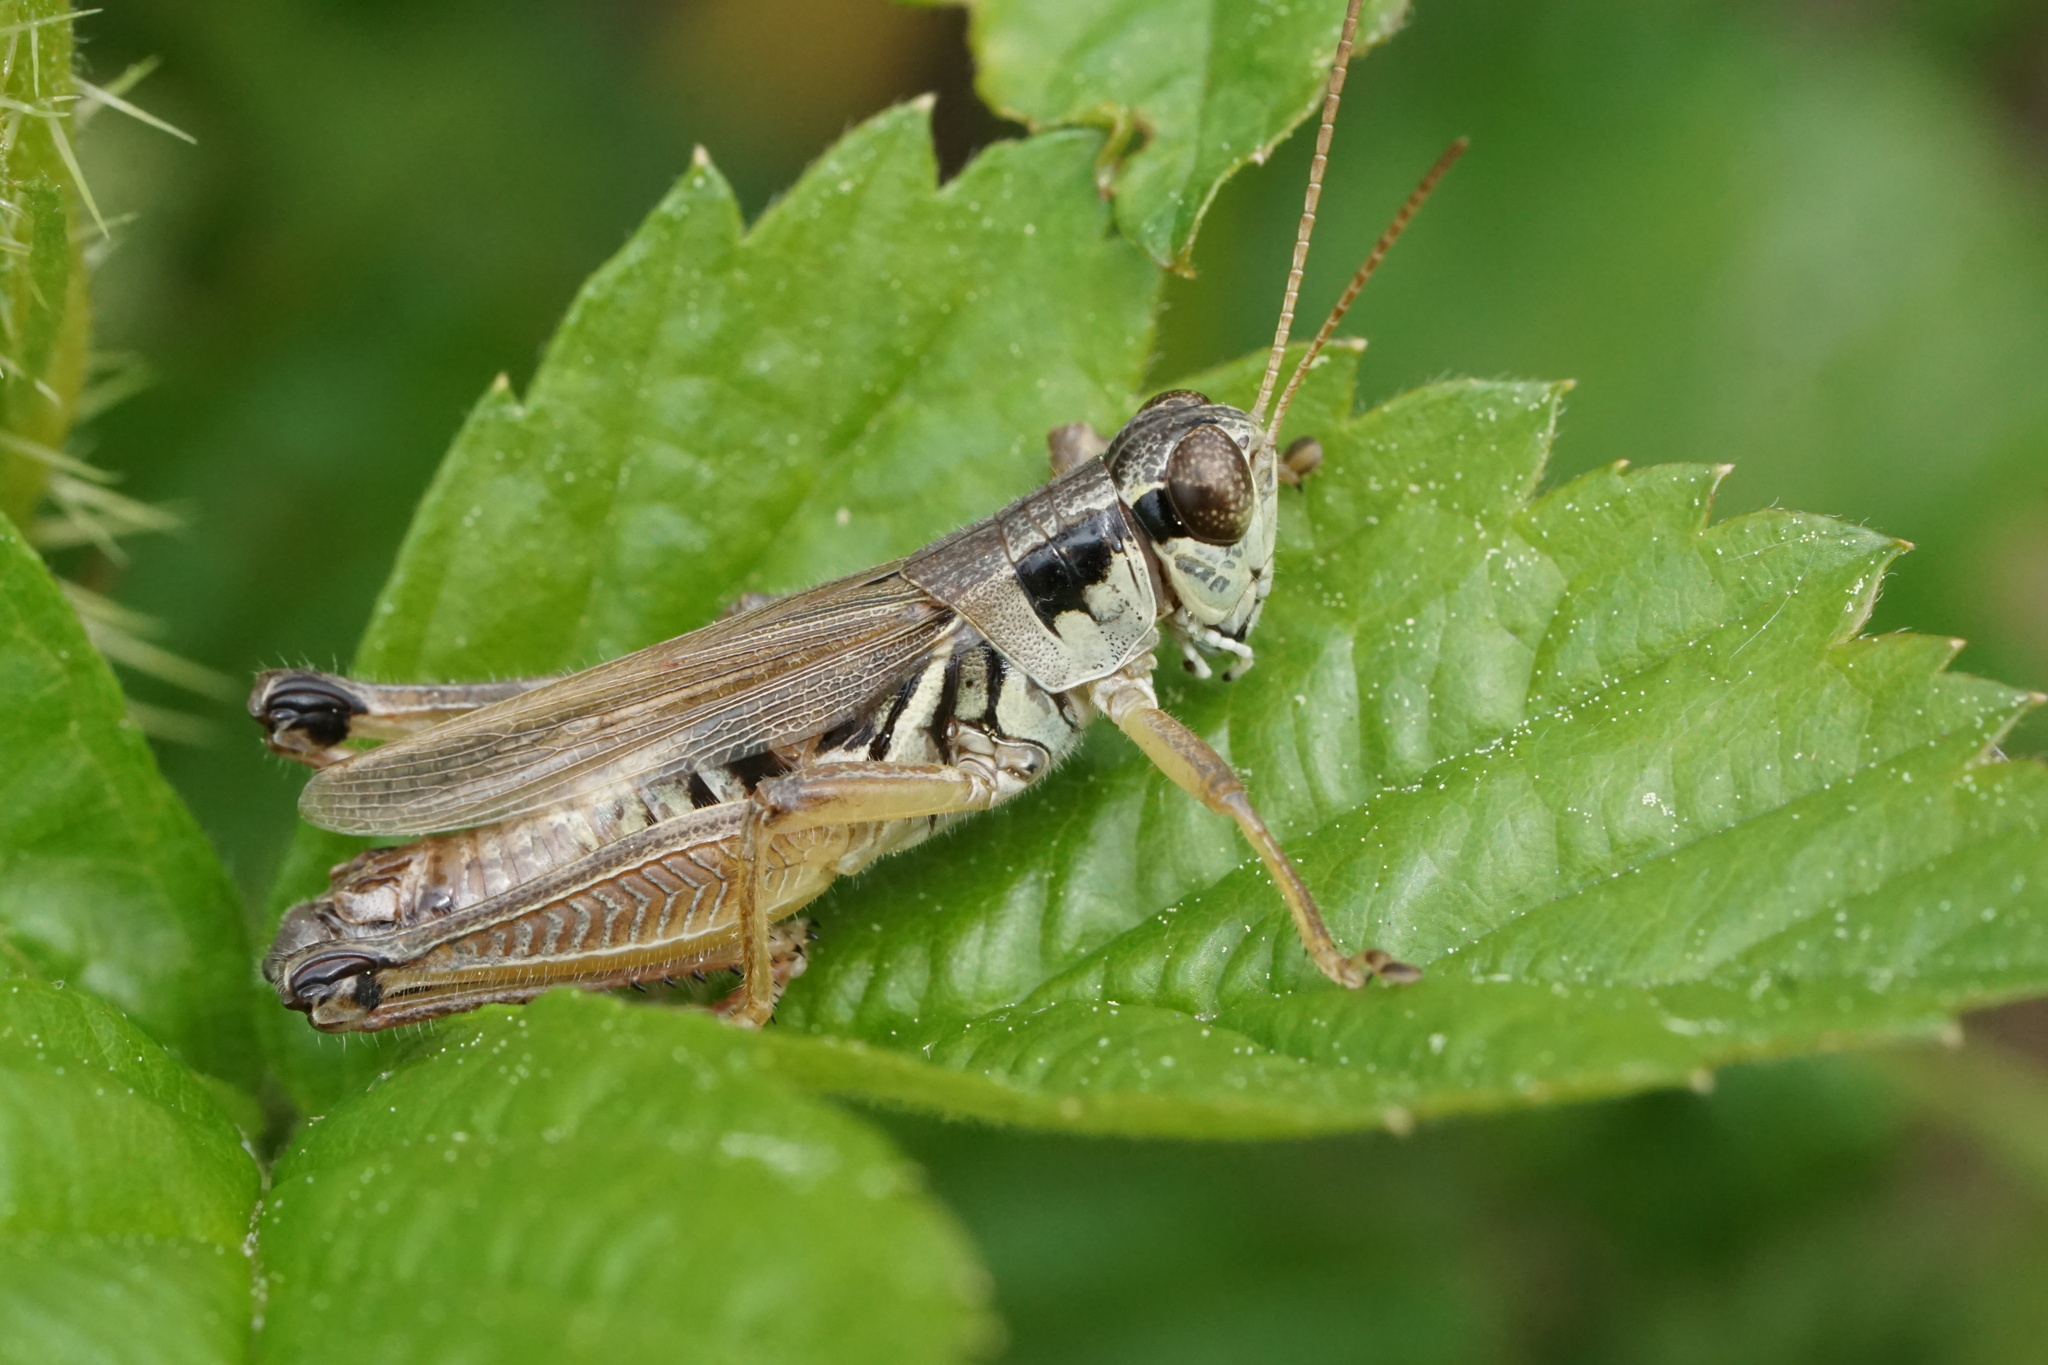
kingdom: Animalia
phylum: Arthropoda
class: Insecta
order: Orthoptera
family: Acrididae
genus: Melanoplus
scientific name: Melanoplus borealis
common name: Northern grasshopper
